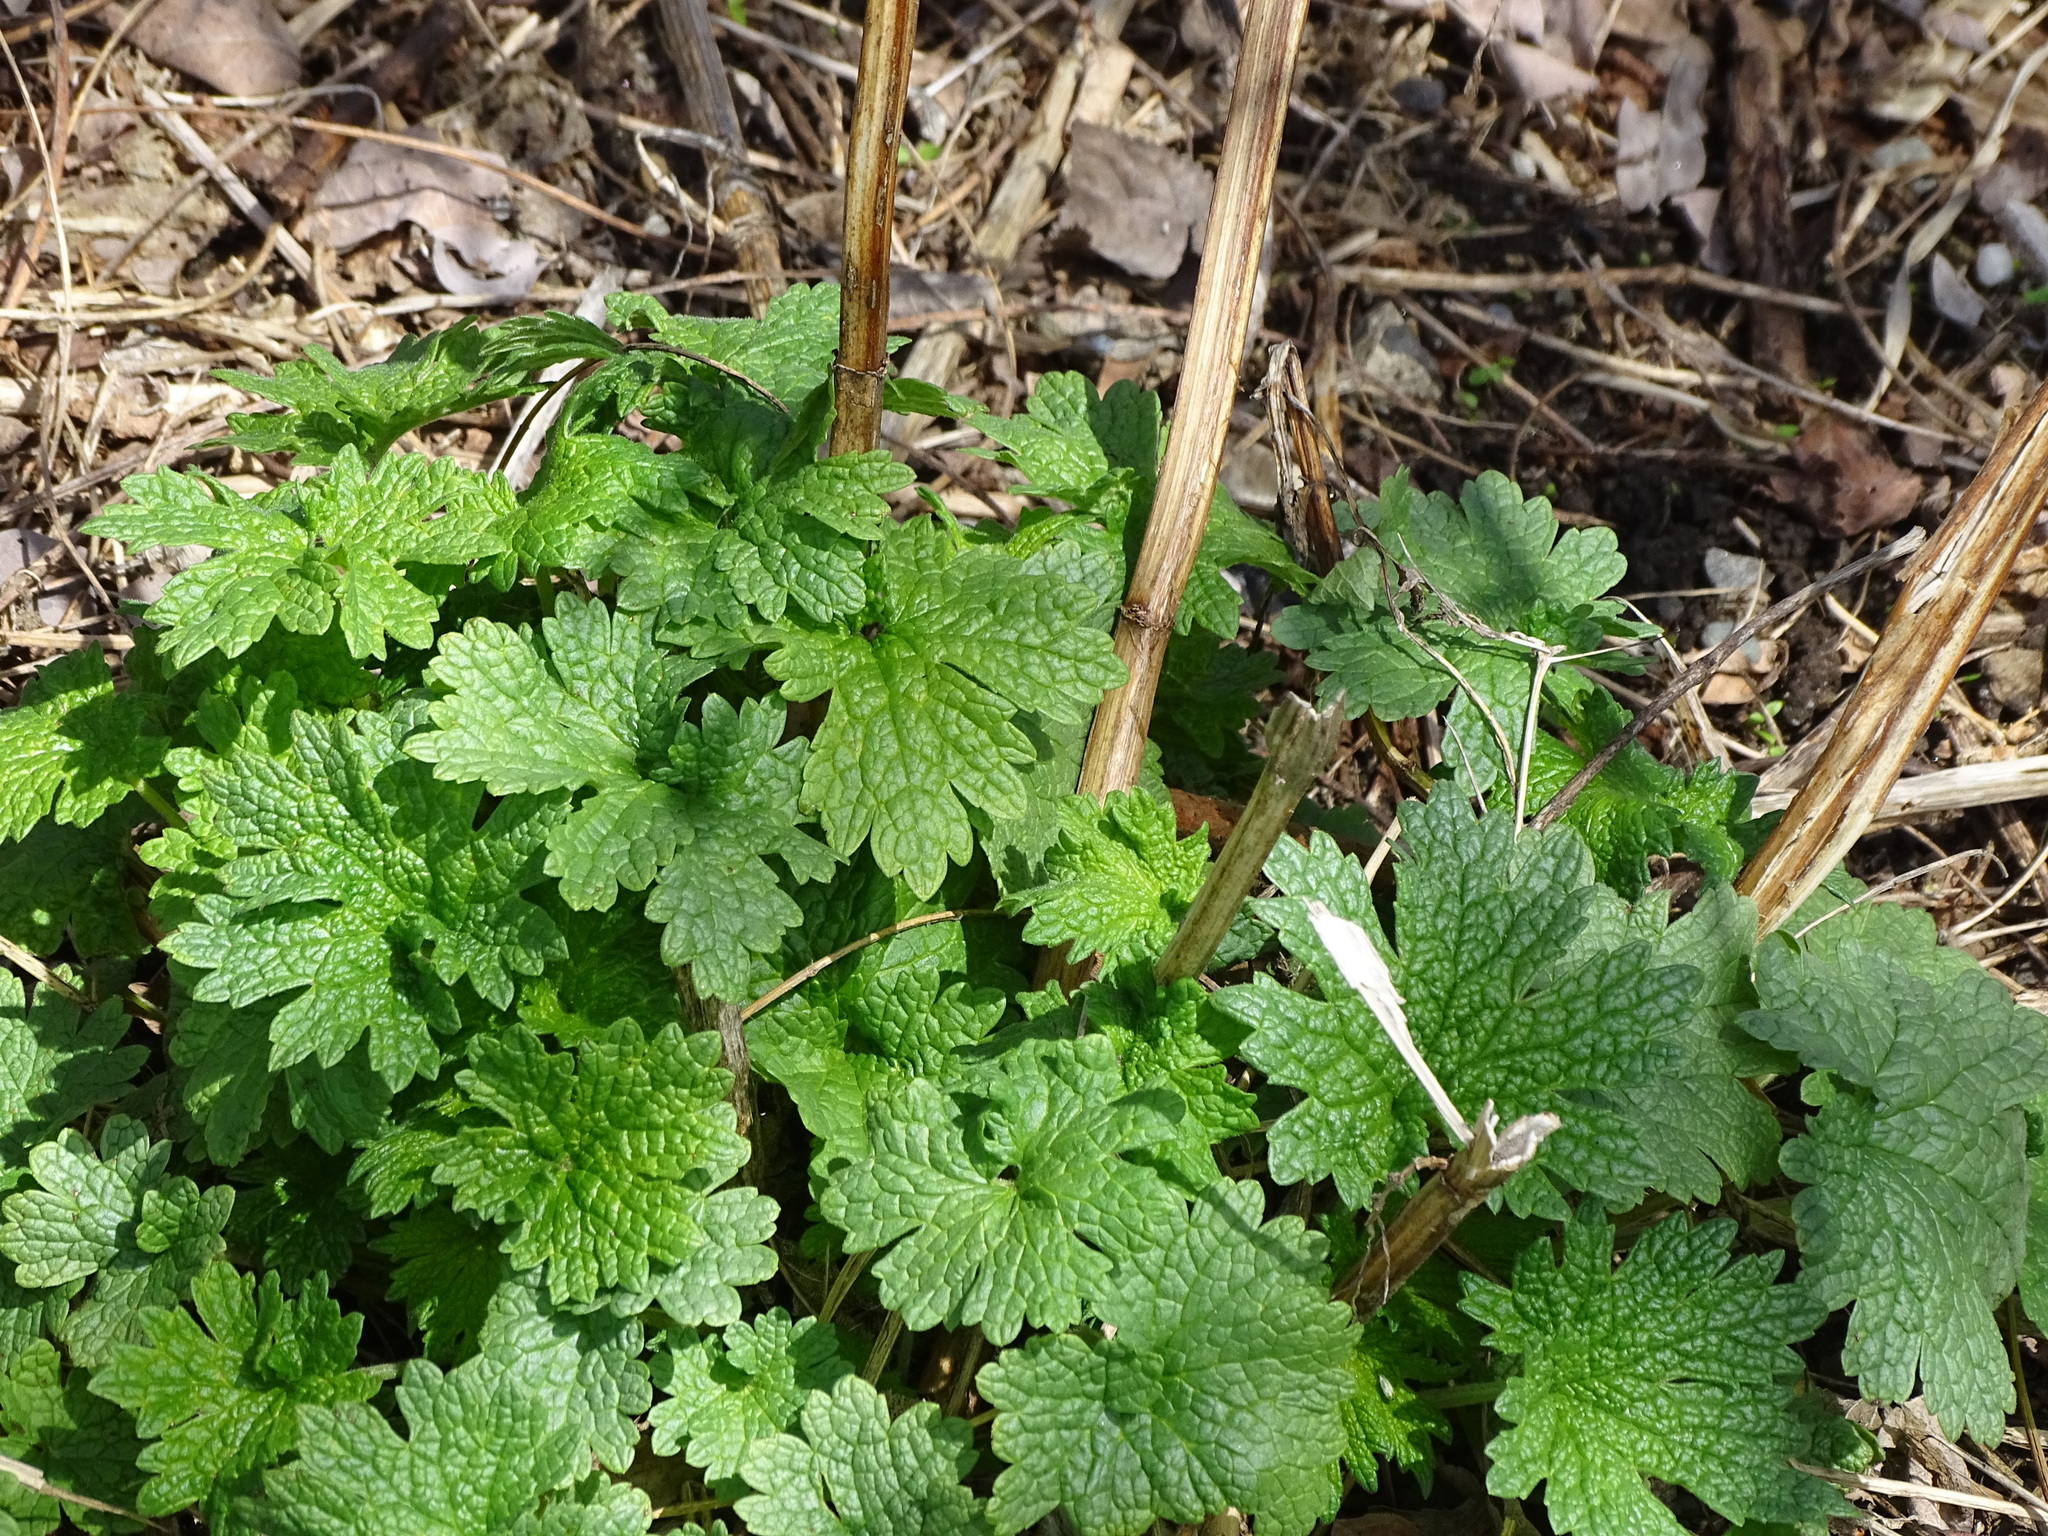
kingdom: Plantae
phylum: Tracheophyta
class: Magnoliopsida
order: Lamiales
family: Lamiaceae
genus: Leonurus
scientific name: Leonurus cardiaca
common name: Motherwort
